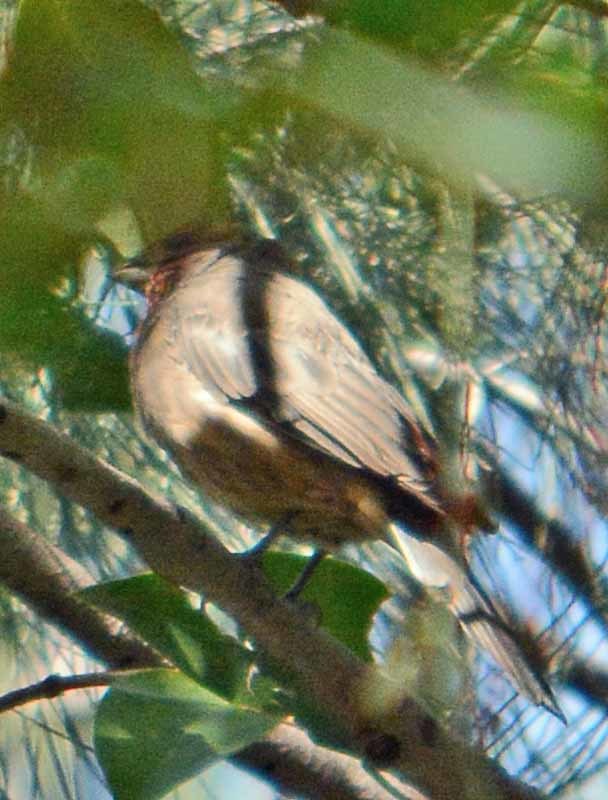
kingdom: Animalia
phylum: Chordata
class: Aves
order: Passeriformes
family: Fringillidae
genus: Haemorhous
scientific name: Haemorhous mexicanus
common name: House finch
